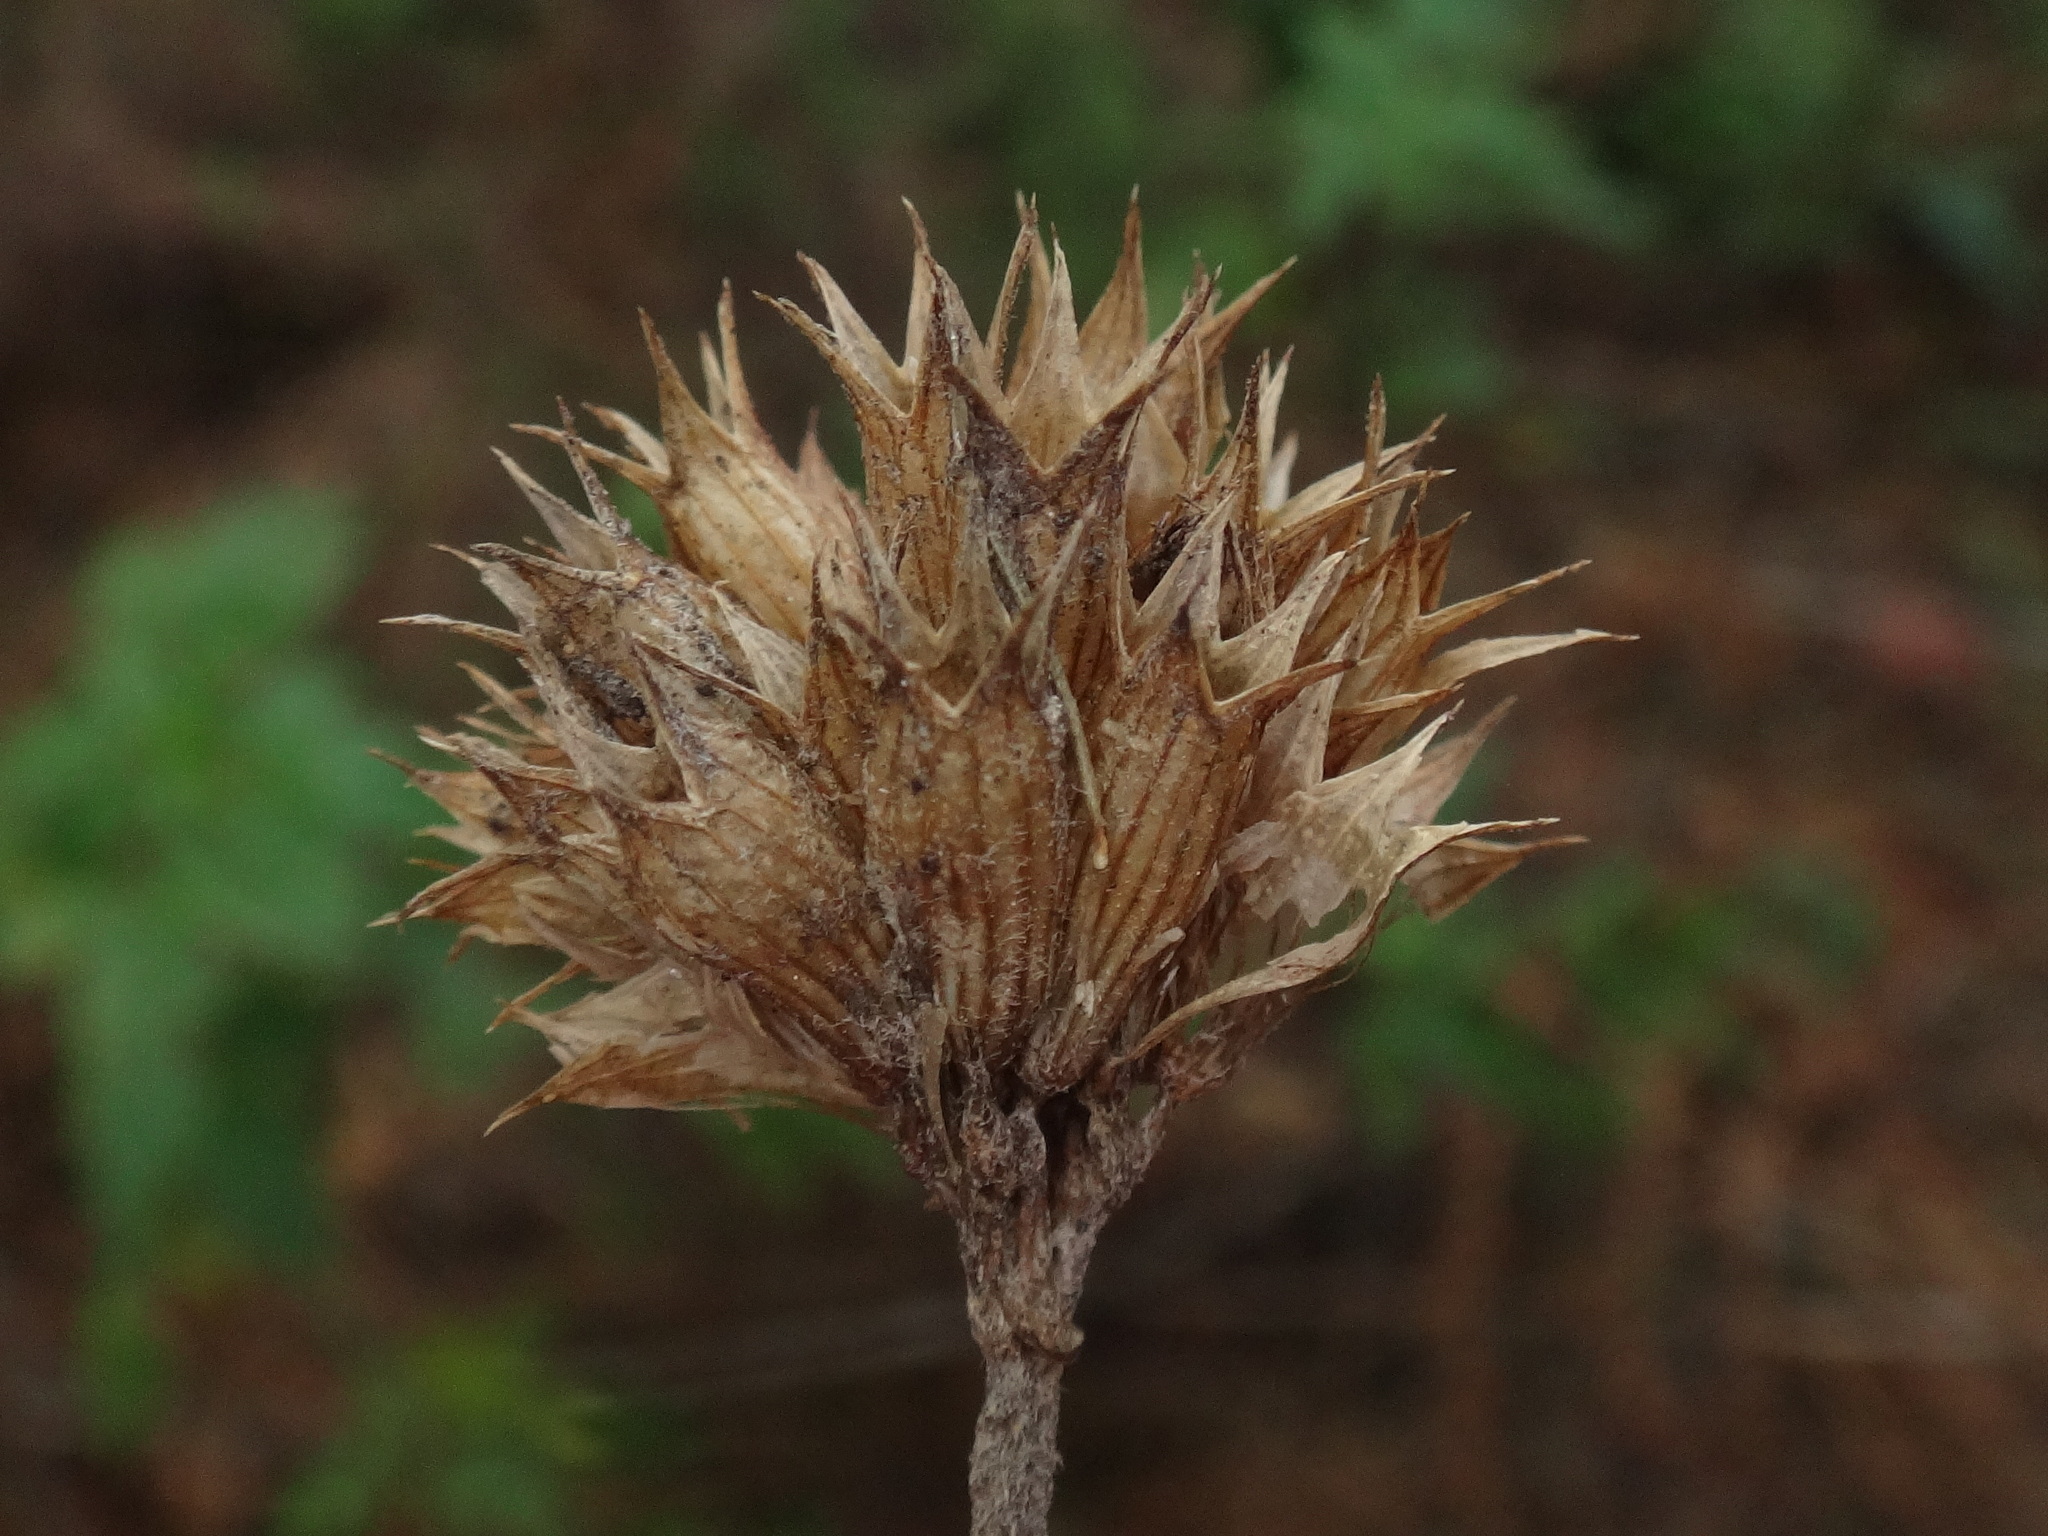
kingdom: Plantae
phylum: Tracheophyta
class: Magnoliopsida
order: Lamiales
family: Lamiaceae
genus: Cedronella
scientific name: Cedronella canariensis
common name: Canary islands balm
